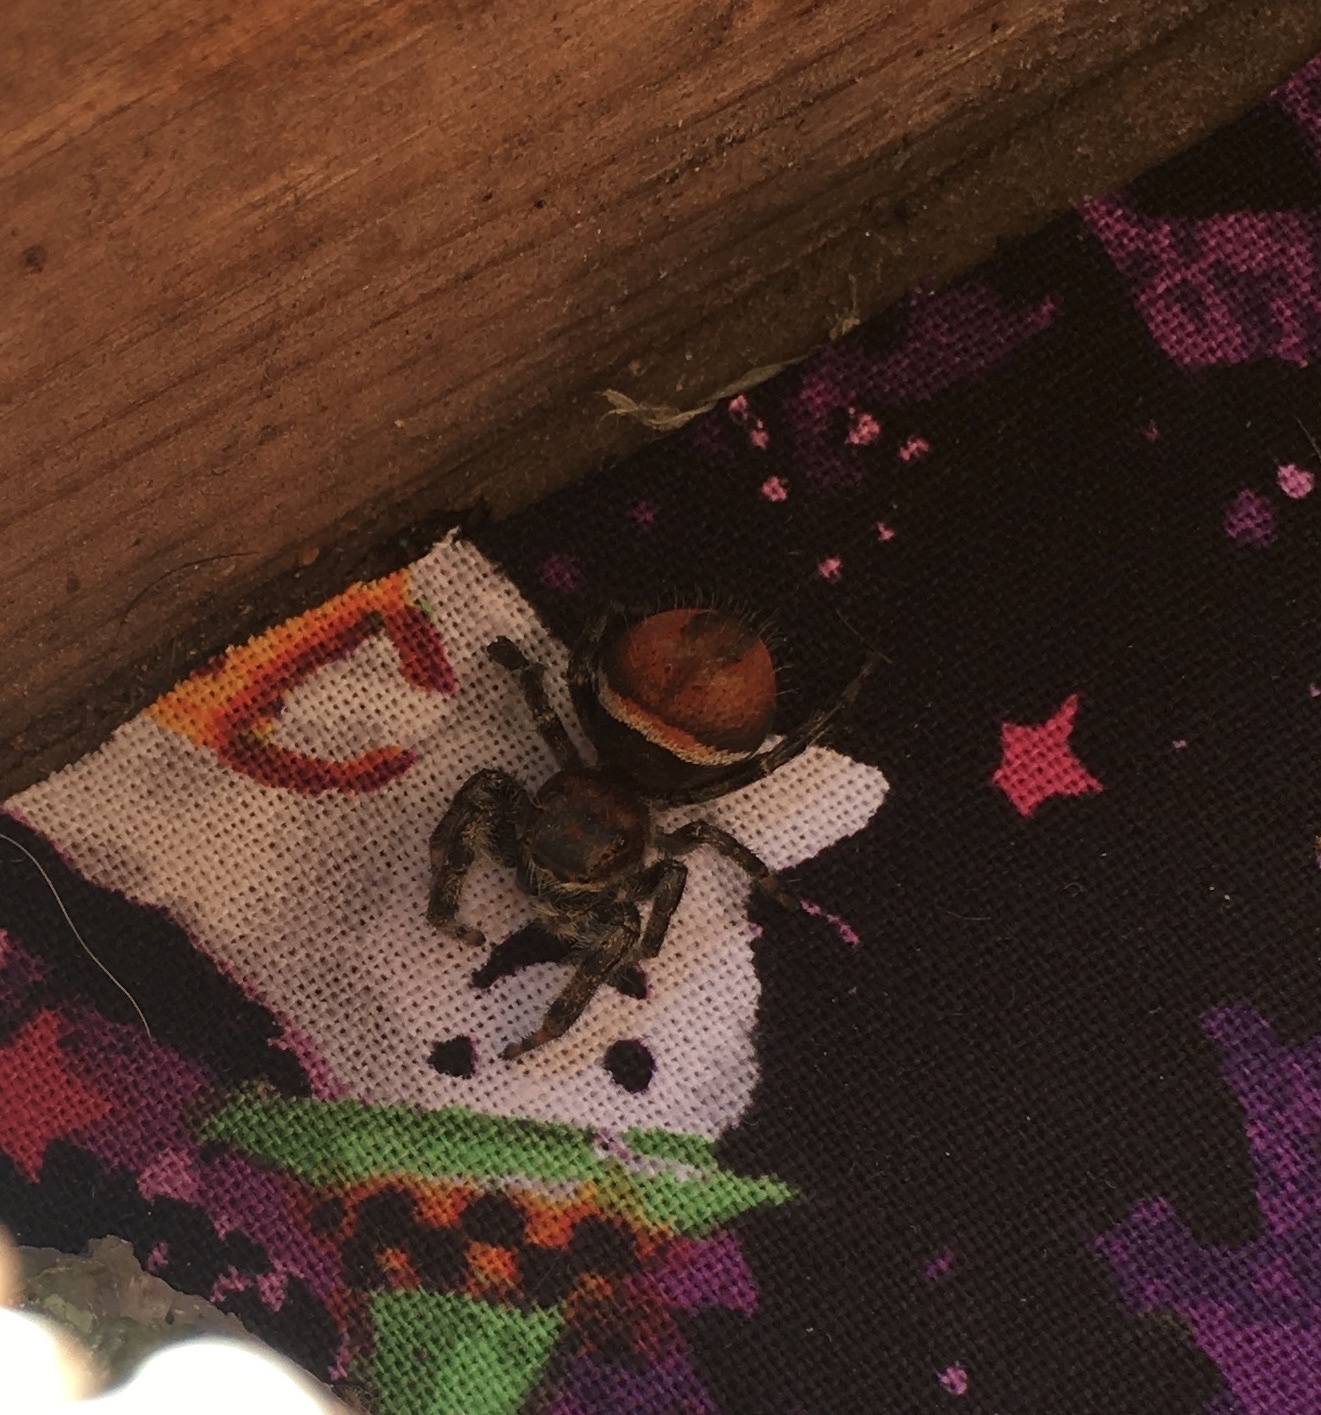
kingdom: Animalia
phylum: Arthropoda
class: Arachnida
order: Araneae
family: Salticidae
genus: Phidippus
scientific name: Phidippus clarus
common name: Brilliant jumping spider
